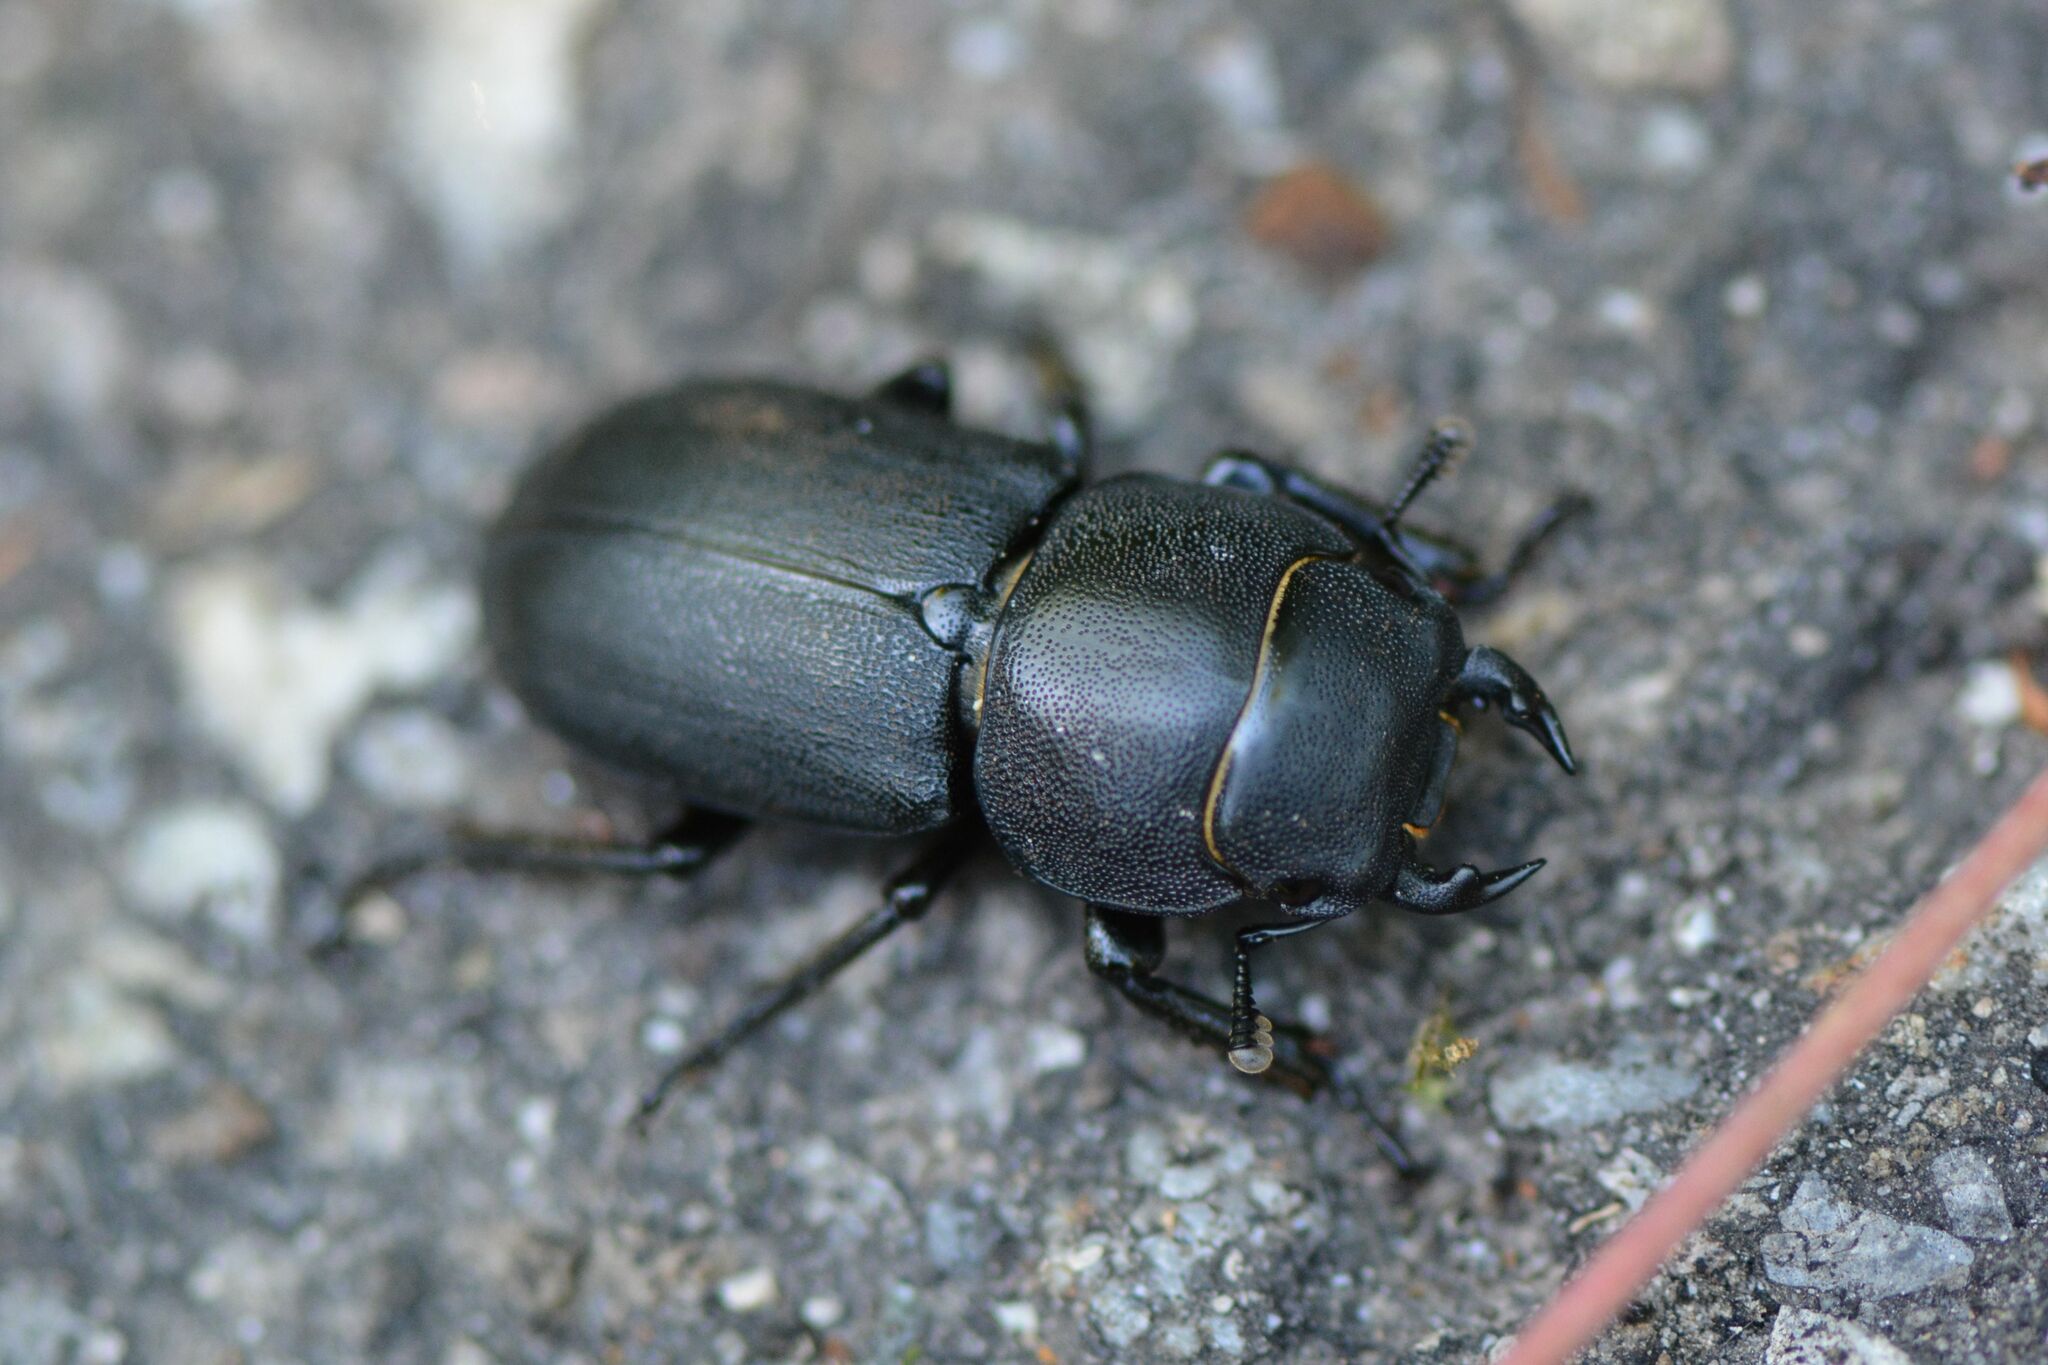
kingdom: Animalia
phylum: Arthropoda
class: Insecta
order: Coleoptera
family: Lucanidae
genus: Dorcus
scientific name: Dorcus parallelipipedus
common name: Lesser stag beetle
